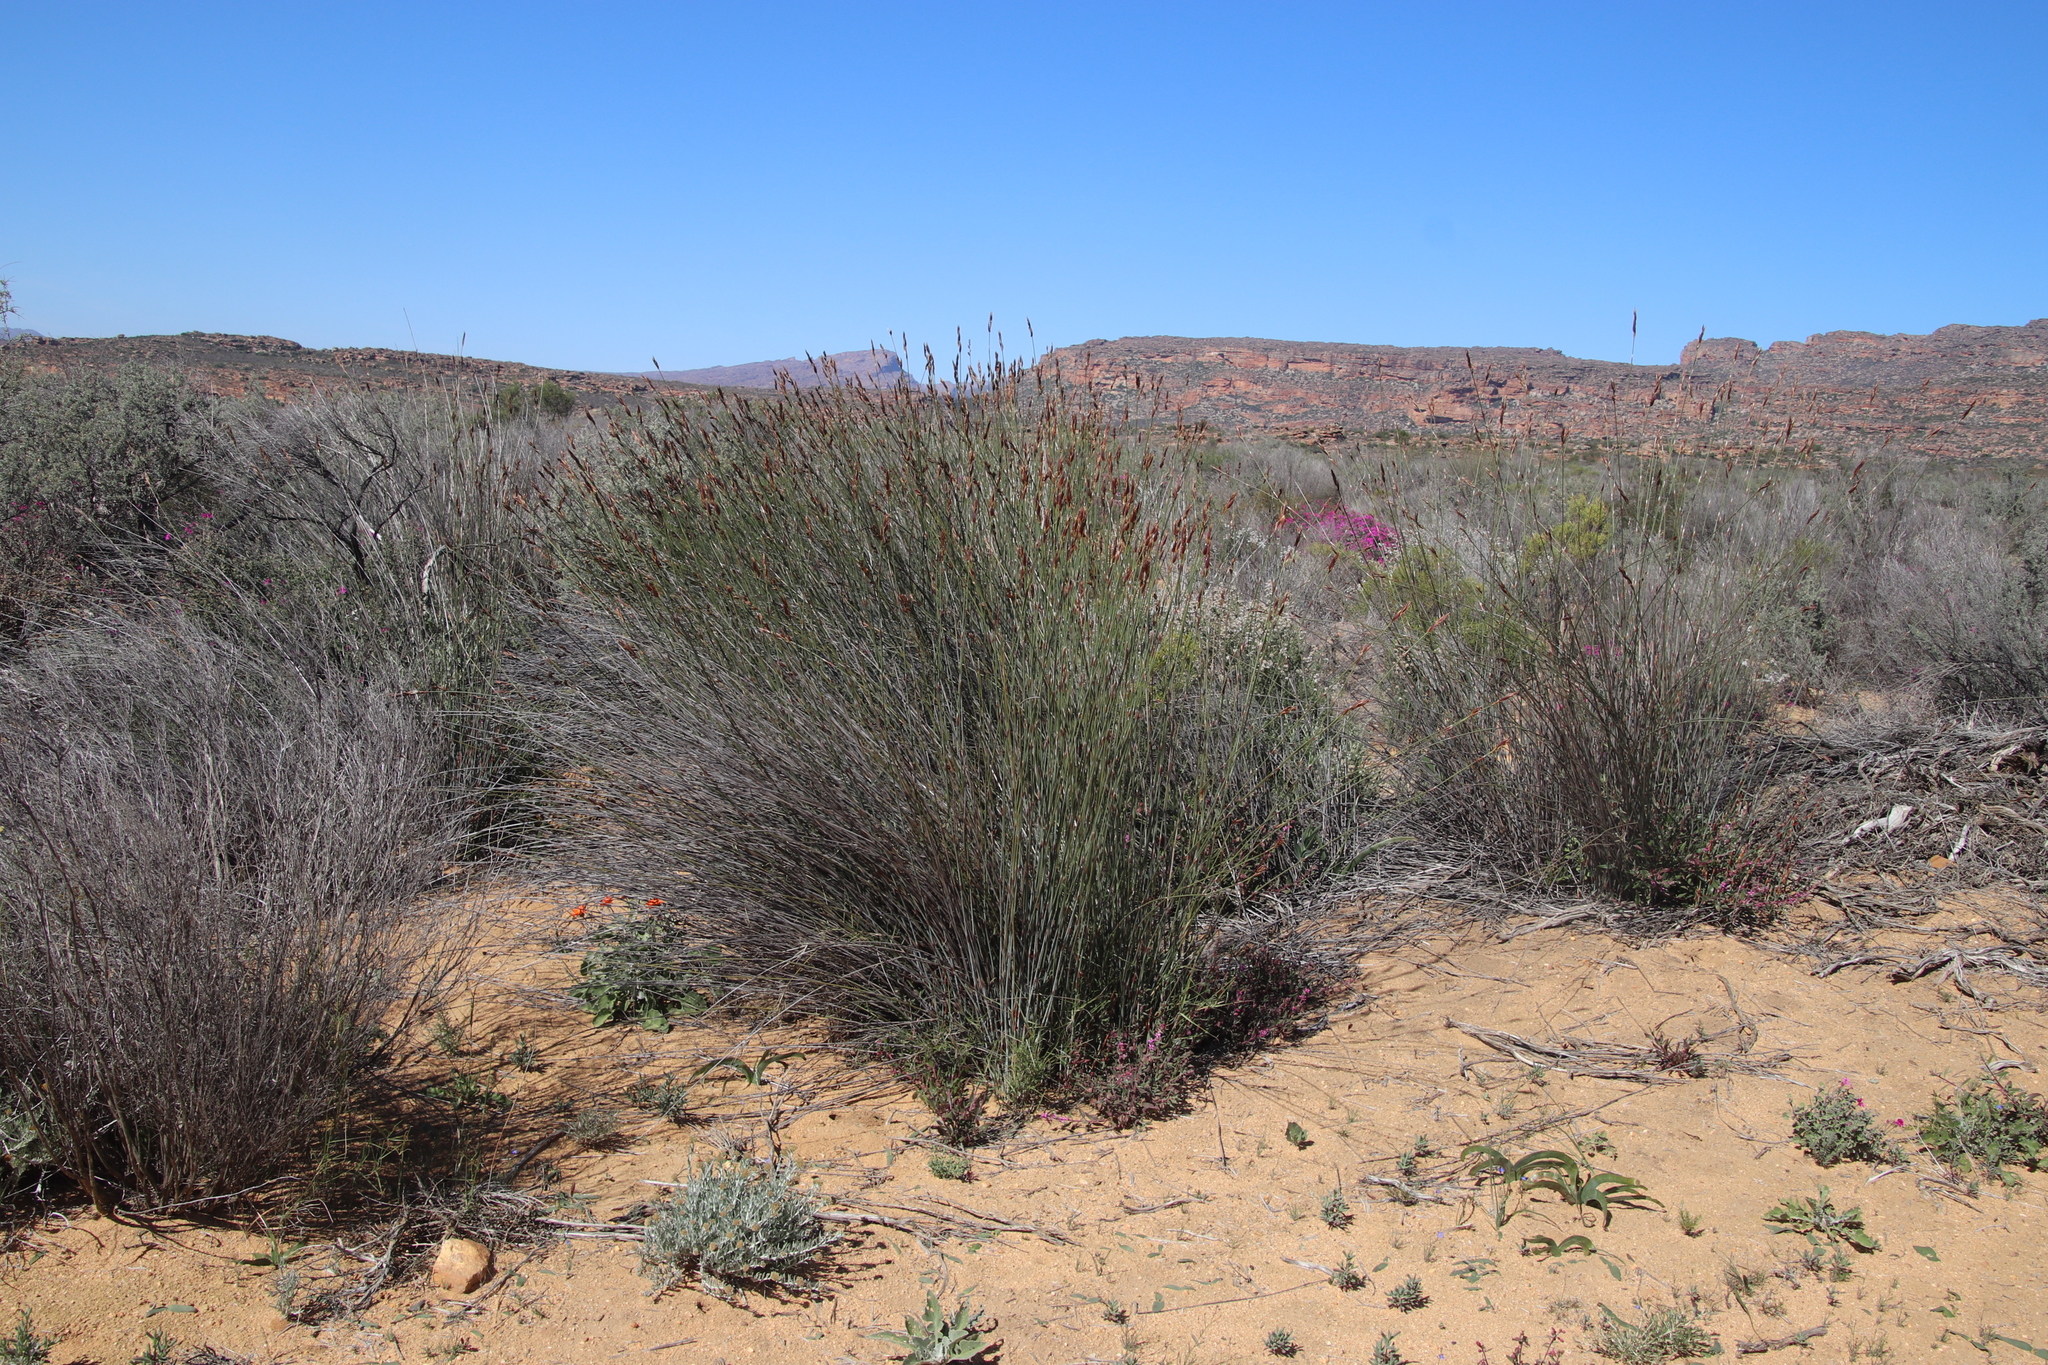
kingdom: Plantae
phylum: Tracheophyta
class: Liliopsida
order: Poales
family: Restionaceae
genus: Cannomois
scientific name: Cannomois parviflora
